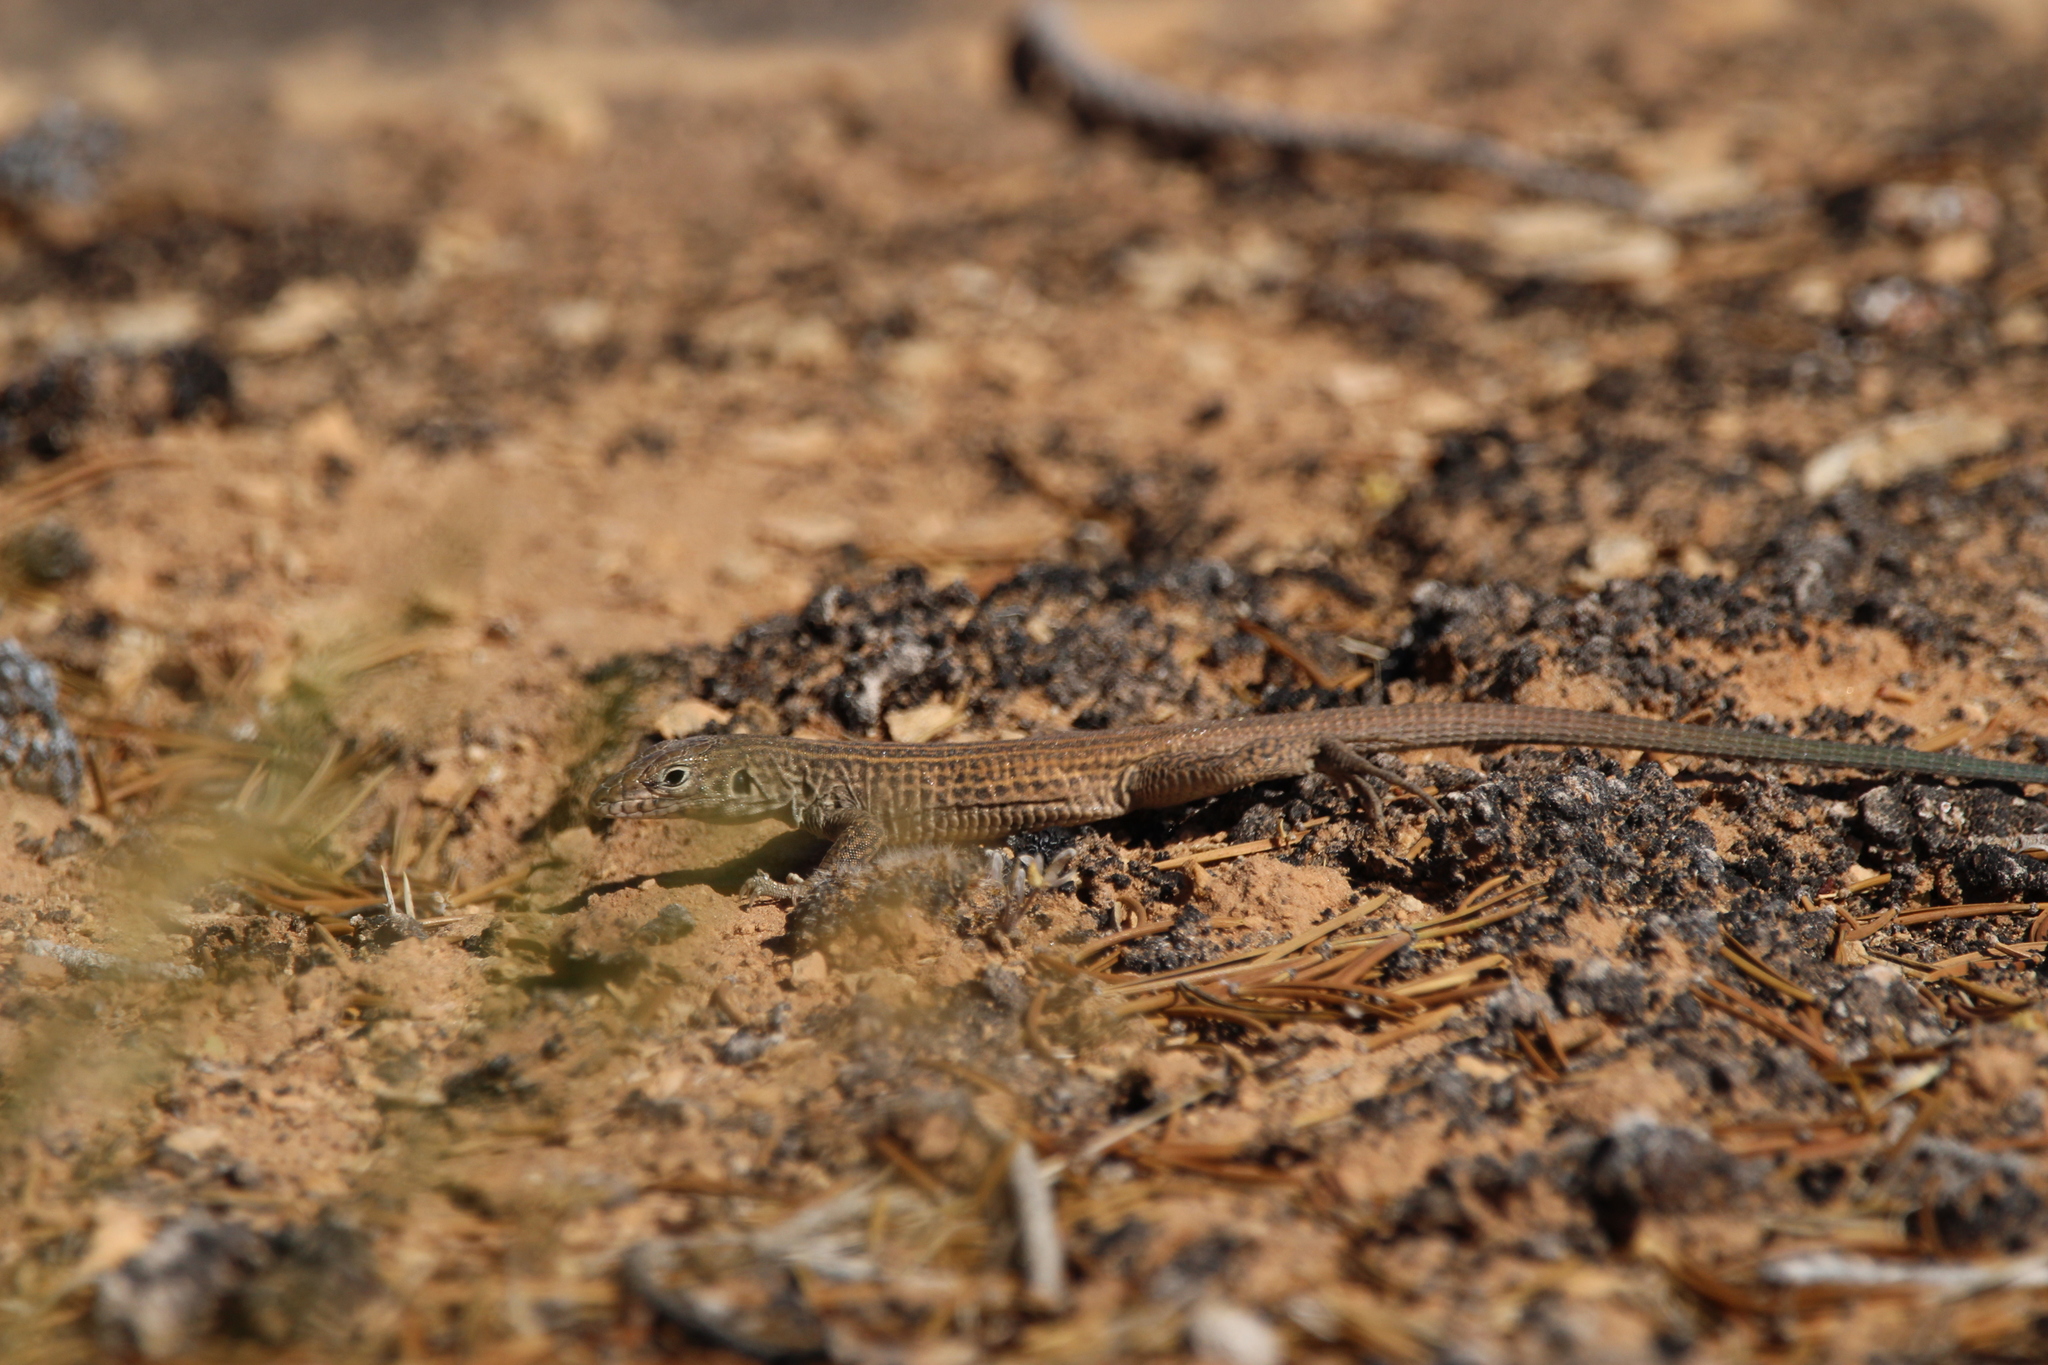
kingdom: Animalia
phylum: Chordata
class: Squamata
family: Teiidae
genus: Aspidoscelis
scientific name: Aspidoscelis tigris
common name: Tiger whiptail
